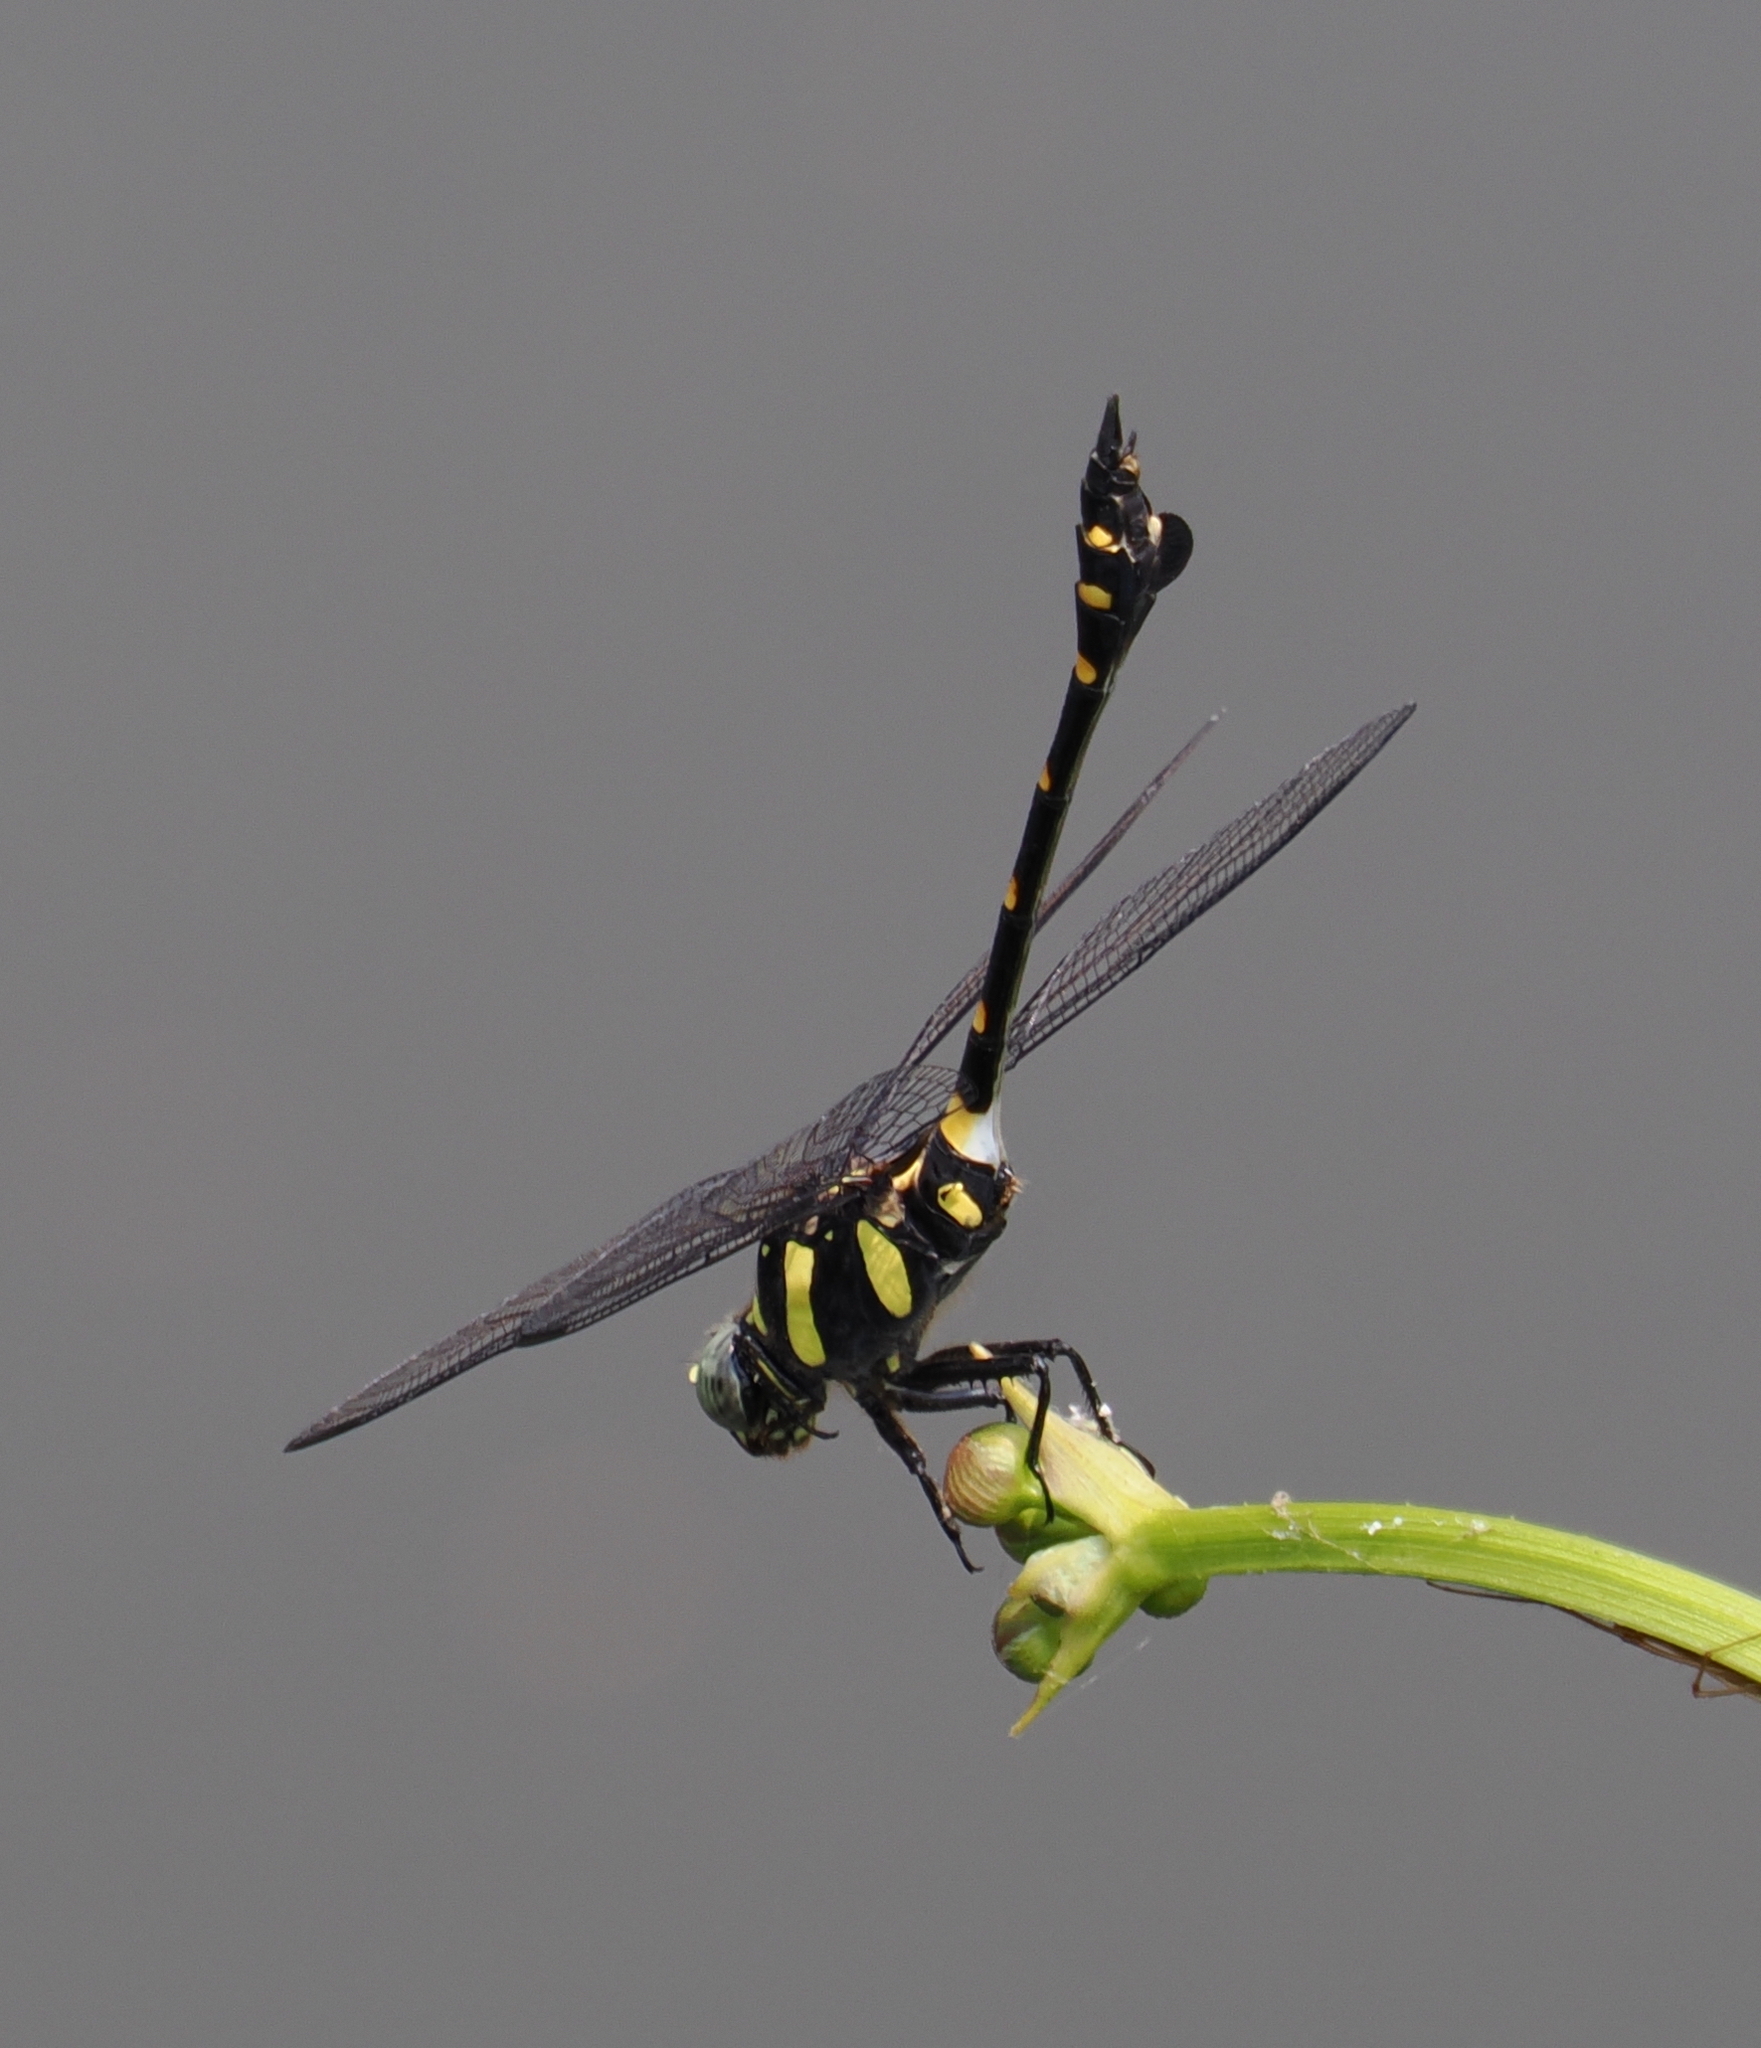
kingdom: Animalia
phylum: Arthropoda
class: Insecta
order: Odonata
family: Gomphidae
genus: Ictinogomphus
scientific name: Ictinogomphus decoratus
